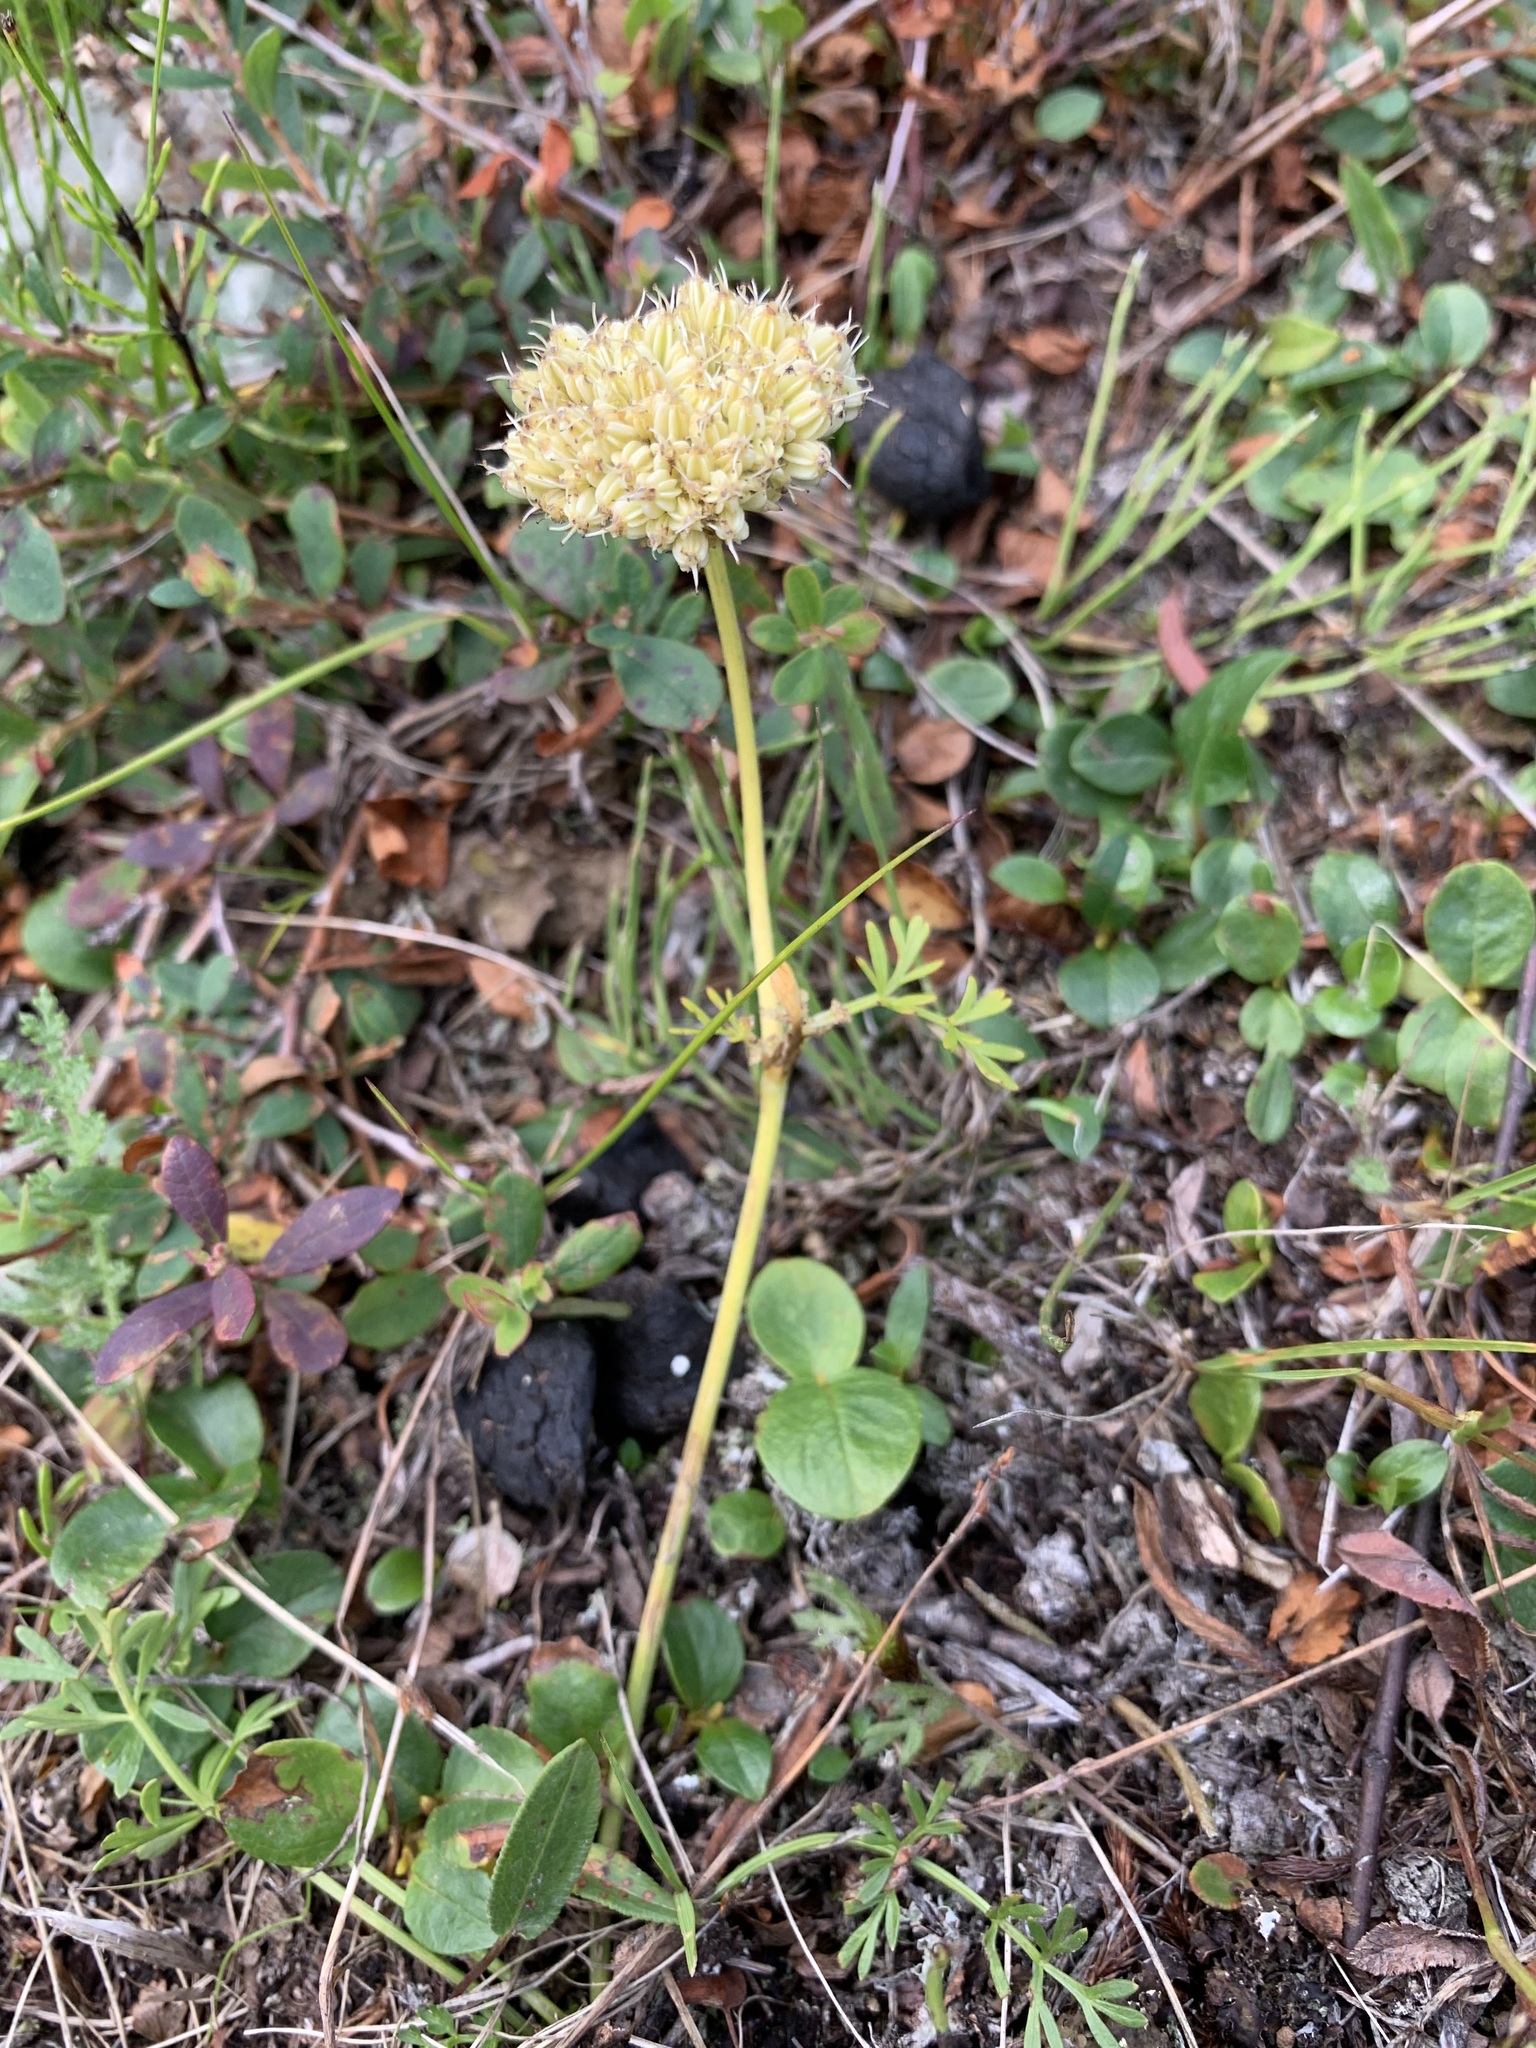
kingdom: Plantae
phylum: Tracheophyta
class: Magnoliopsida
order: Apiales
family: Apiaceae
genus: Pachypleurum
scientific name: Pachypleurum mutellinoides
